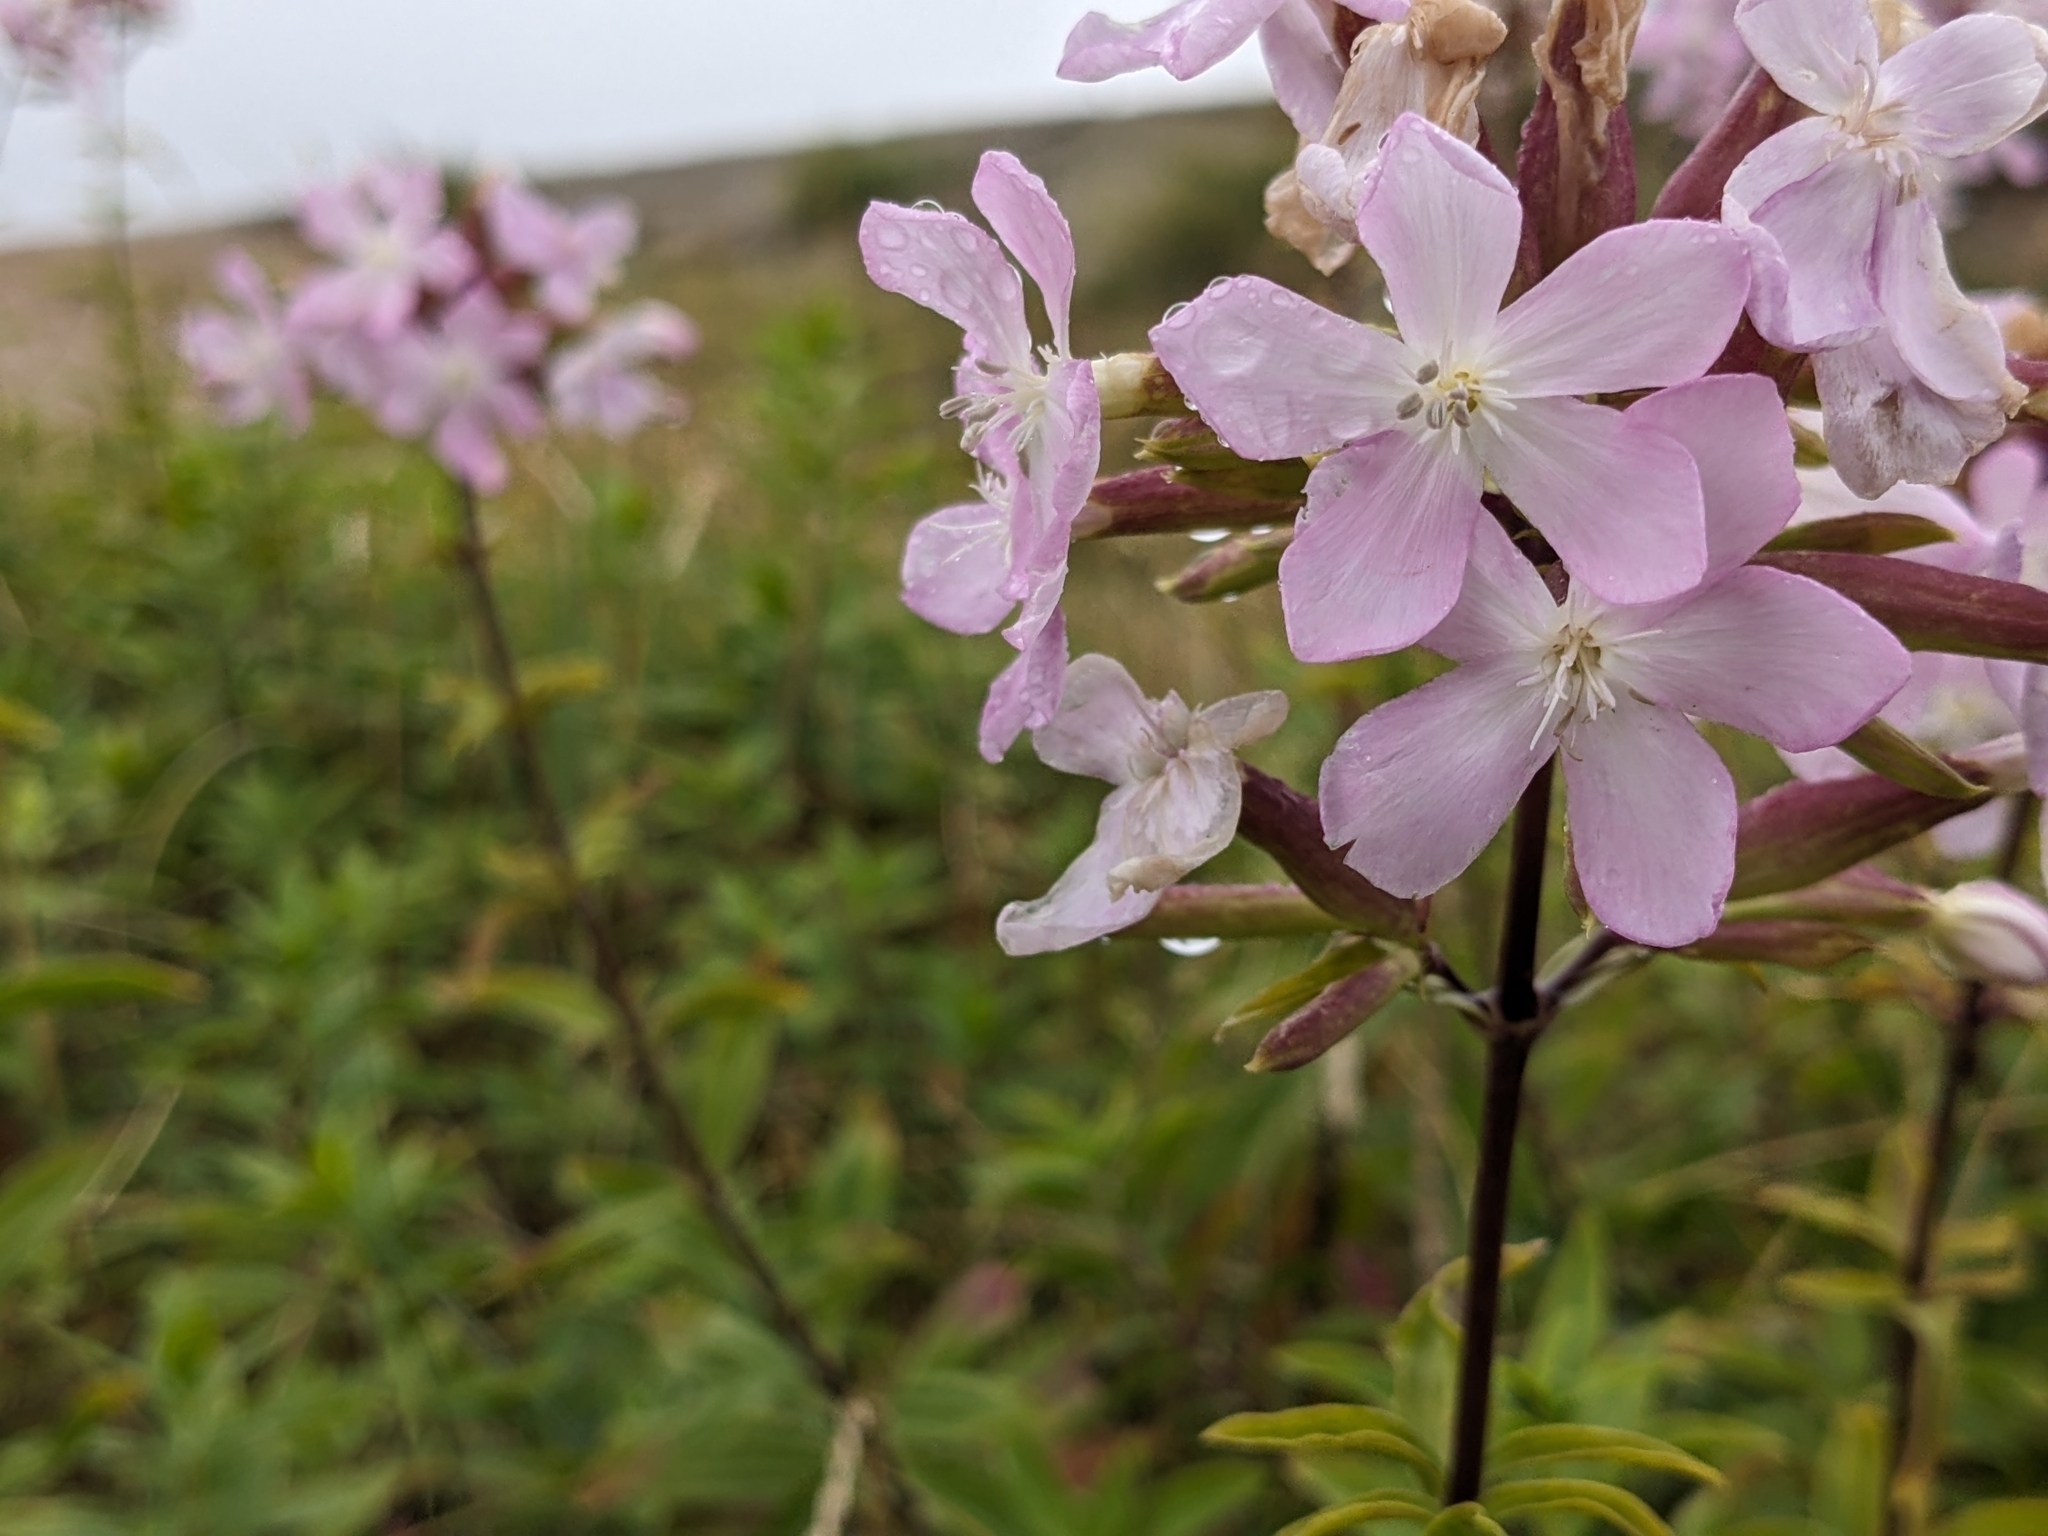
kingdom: Plantae
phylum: Tracheophyta
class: Magnoliopsida
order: Caryophyllales
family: Caryophyllaceae
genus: Saponaria
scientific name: Saponaria officinalis
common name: Soapwort
